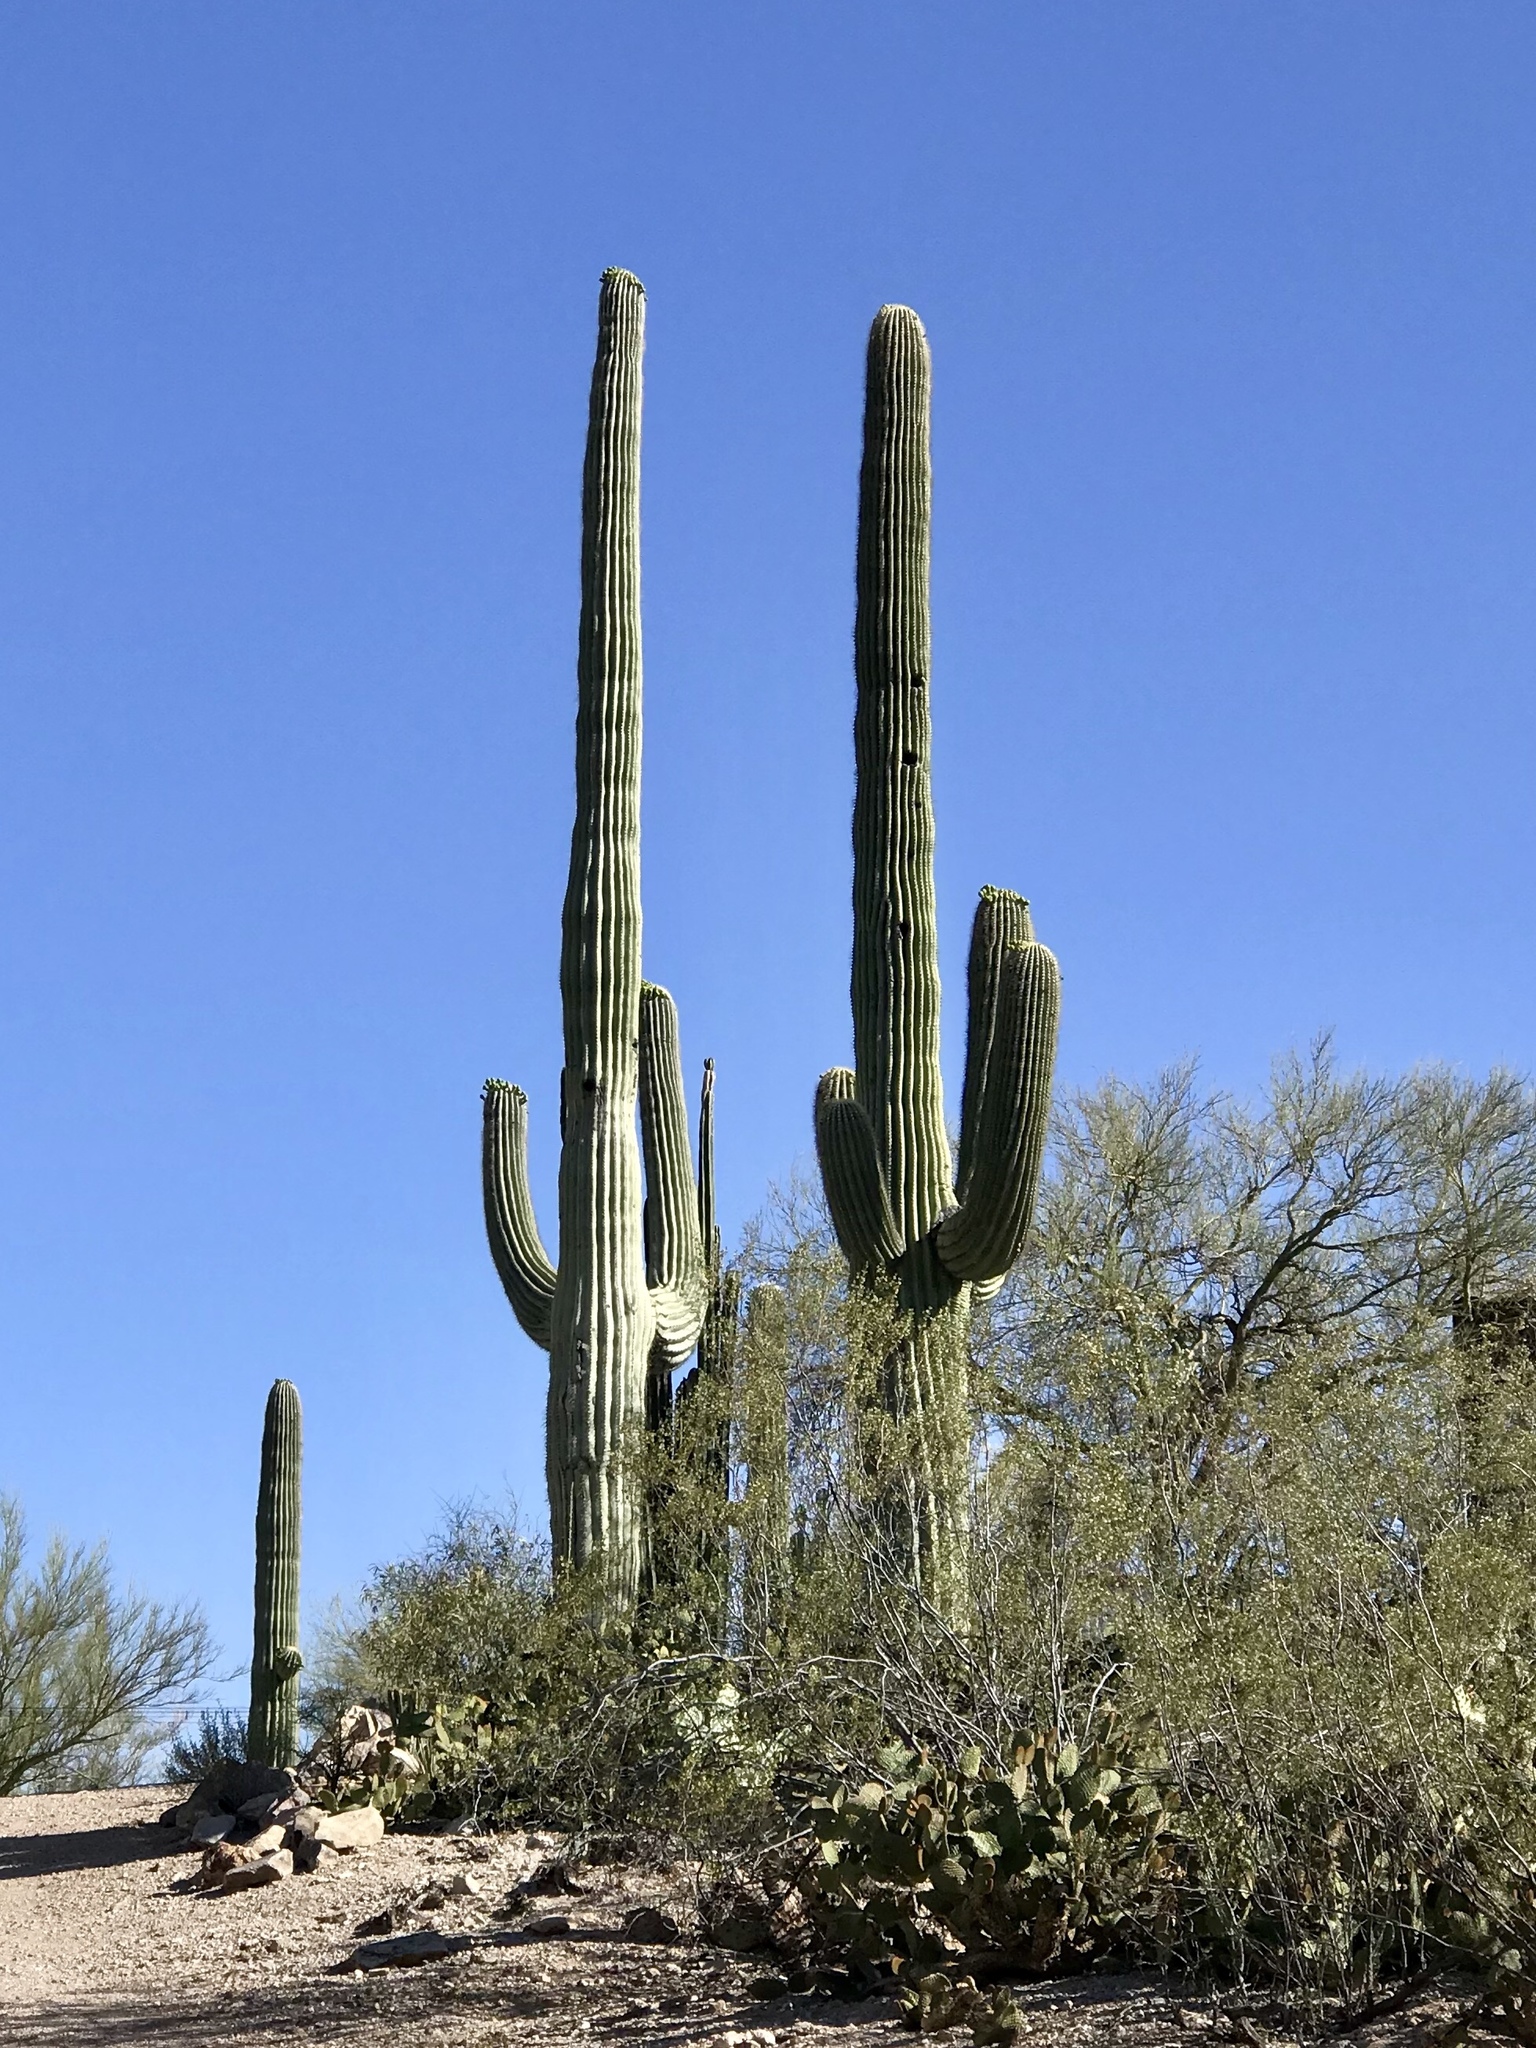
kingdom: Plantae
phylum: Tracheophyta
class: Magnoliopsida
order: Caryophyllales
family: Cactaceae
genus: Carnegiea
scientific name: Carnegiea gigantea
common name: Saguaro
